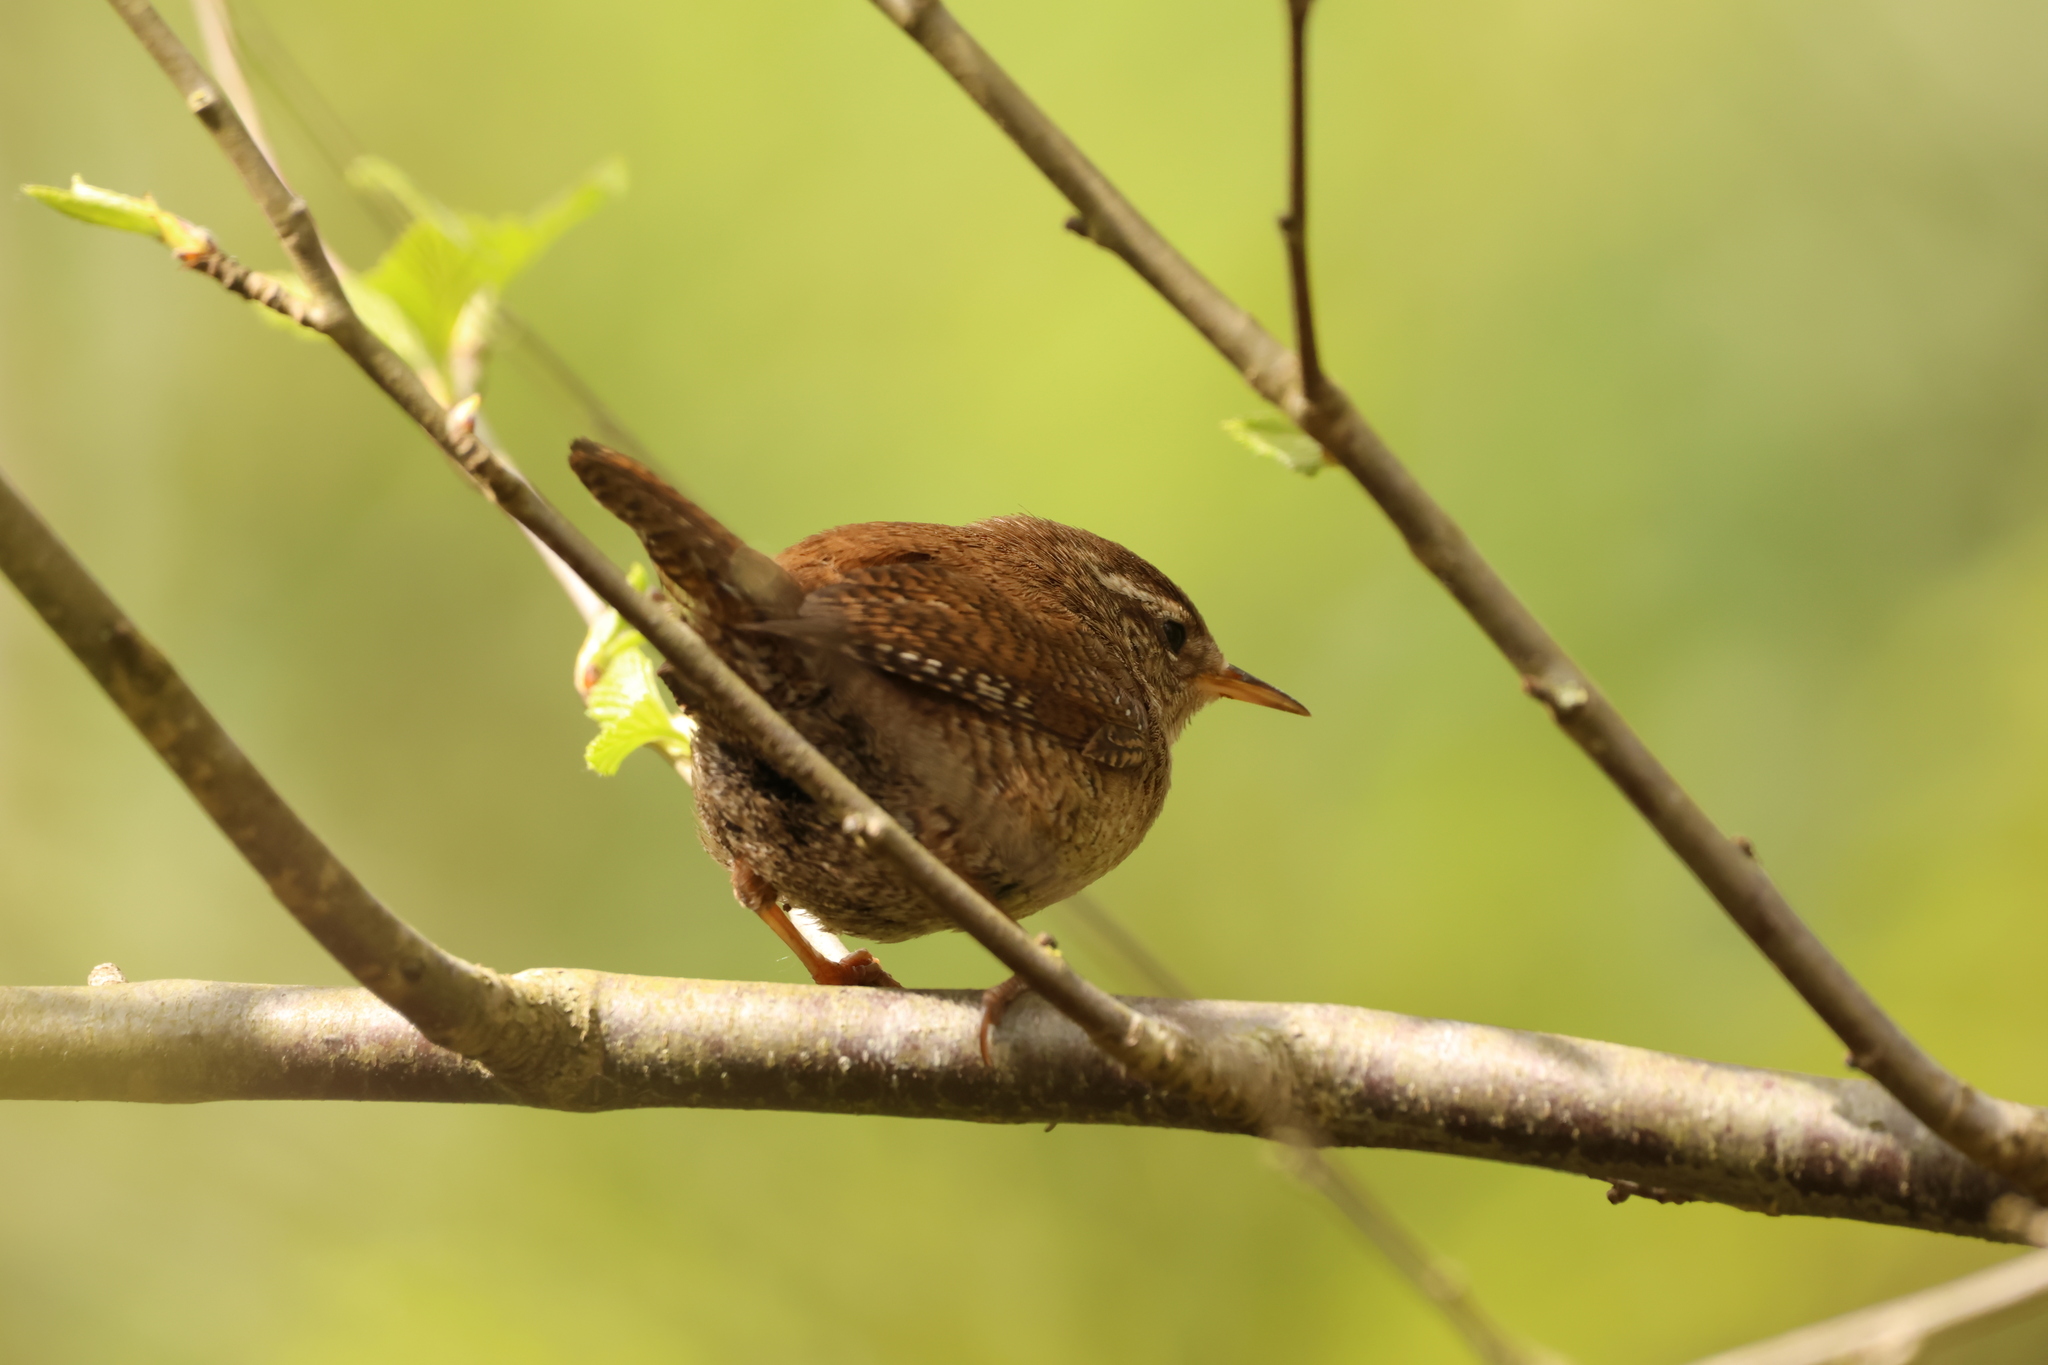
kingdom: Animalia
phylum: Chordata
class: Aves
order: Passeriformes
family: Troglodytidae
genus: Troglodytes
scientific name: Troglodytes troglodytes
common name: Eurasian wren
